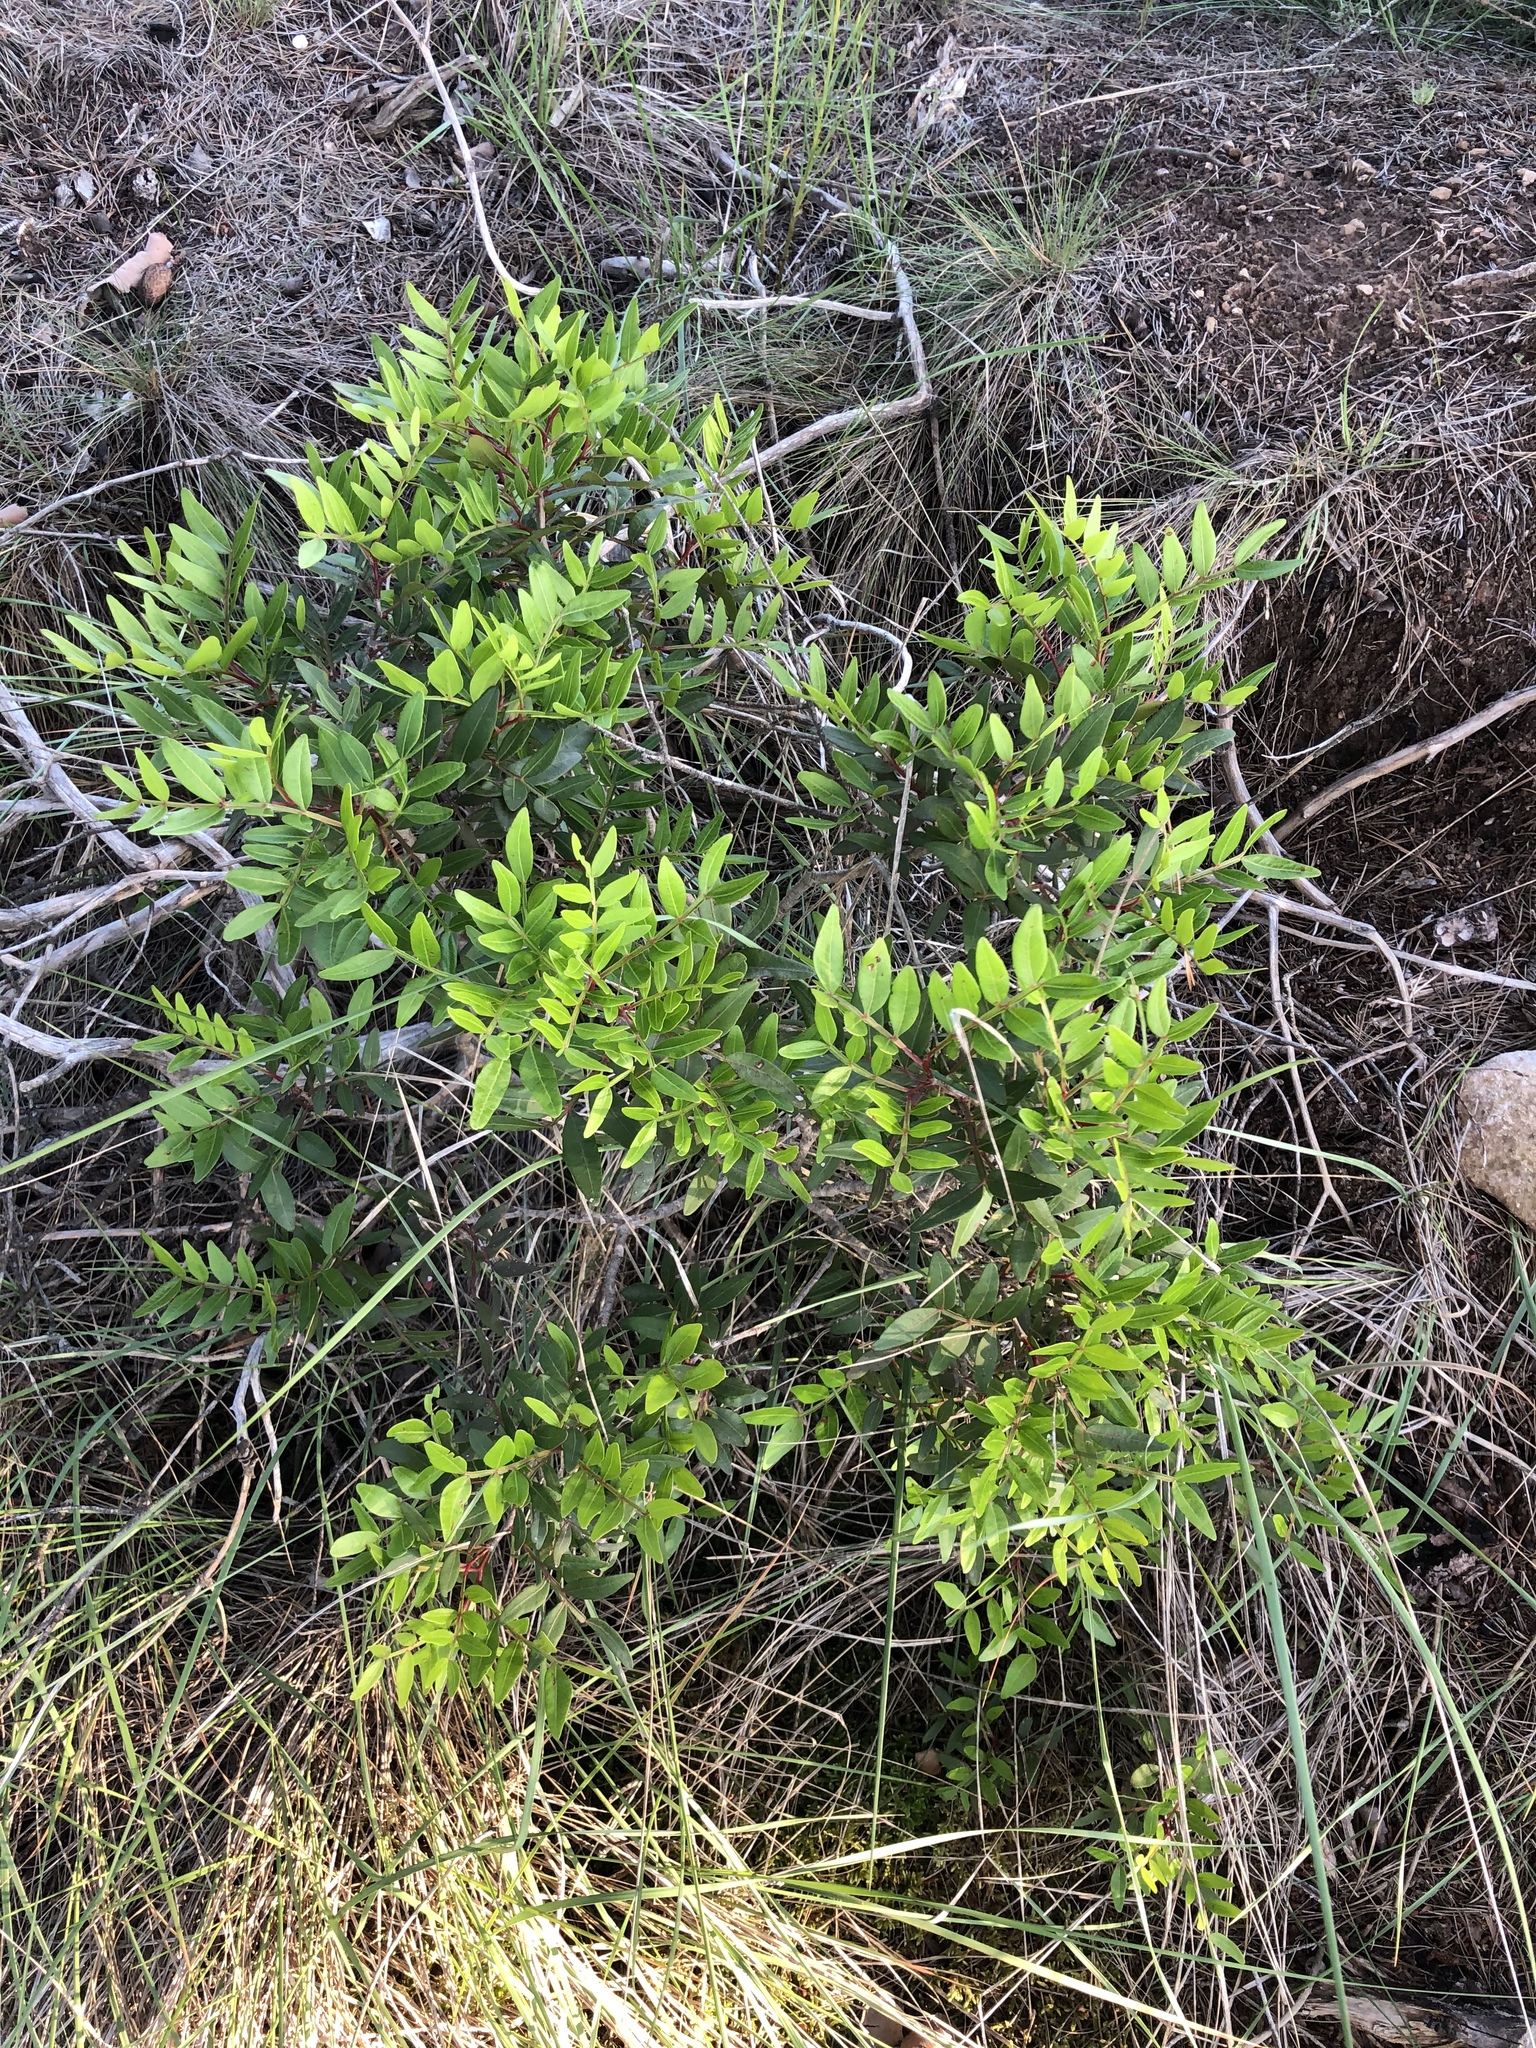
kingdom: Plantae
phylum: Tracheophyta
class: Magnoliopsida
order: Sapindales
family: Anacardiaceae
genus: Pistacia
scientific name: Pistacia lentiscus
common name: Lentisk
